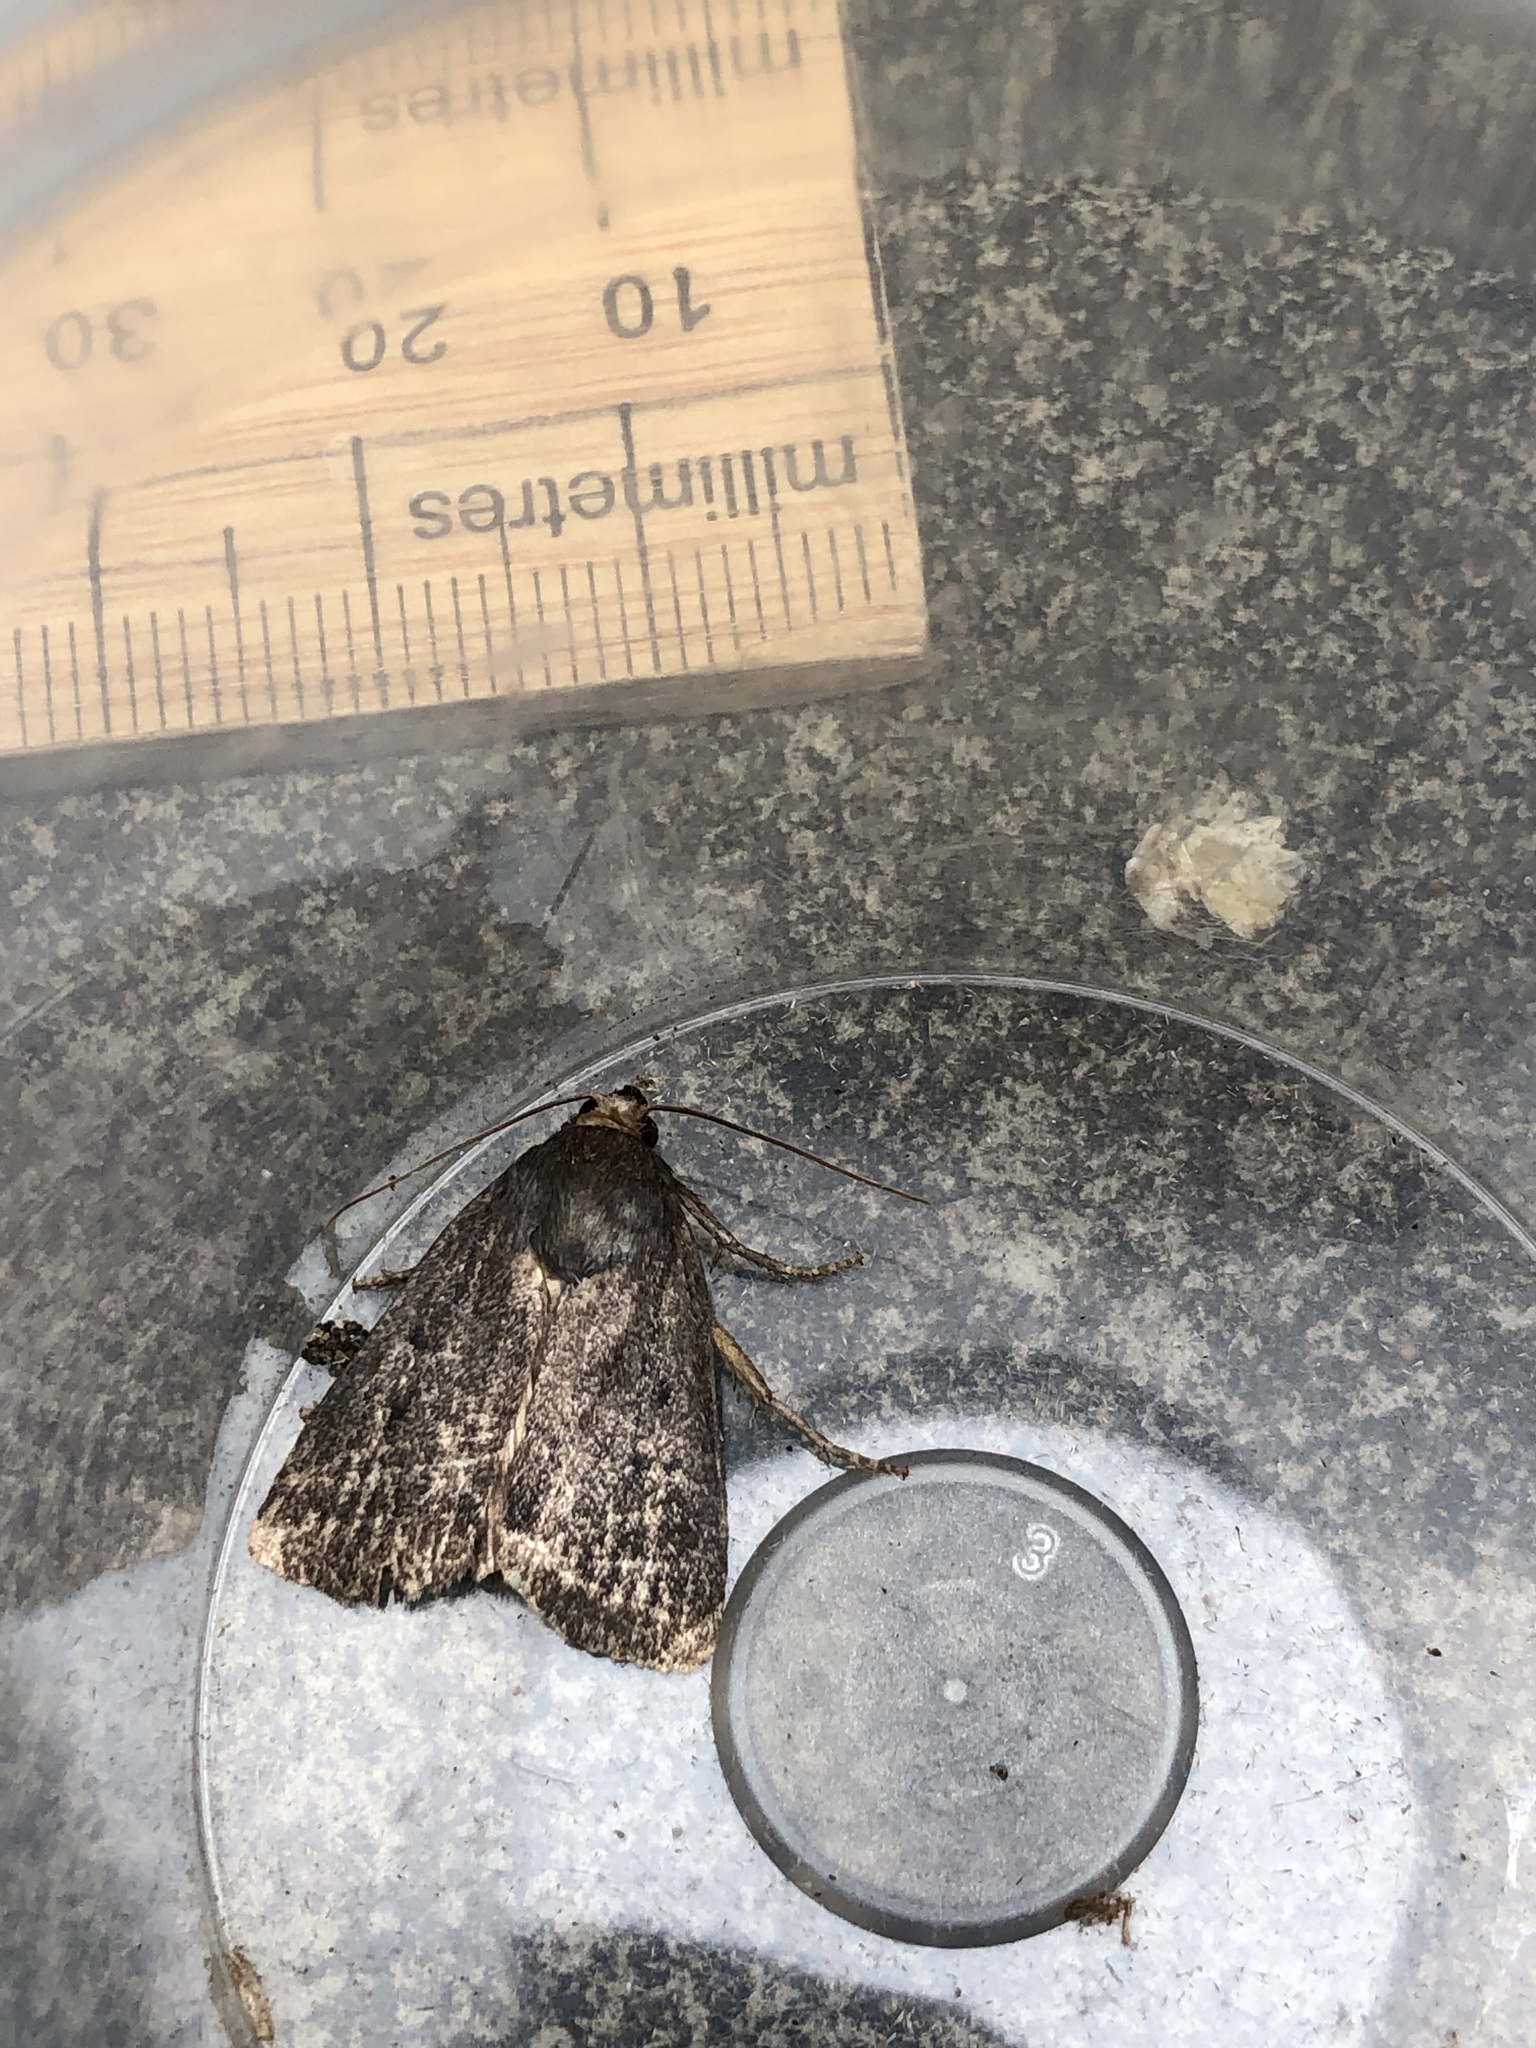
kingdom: Animalia
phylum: Arthropoda
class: Insecta
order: Lepidoptera
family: Noctuidae
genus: Amphipyra
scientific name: Amphipyra tragopoginis
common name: Mouse moth
